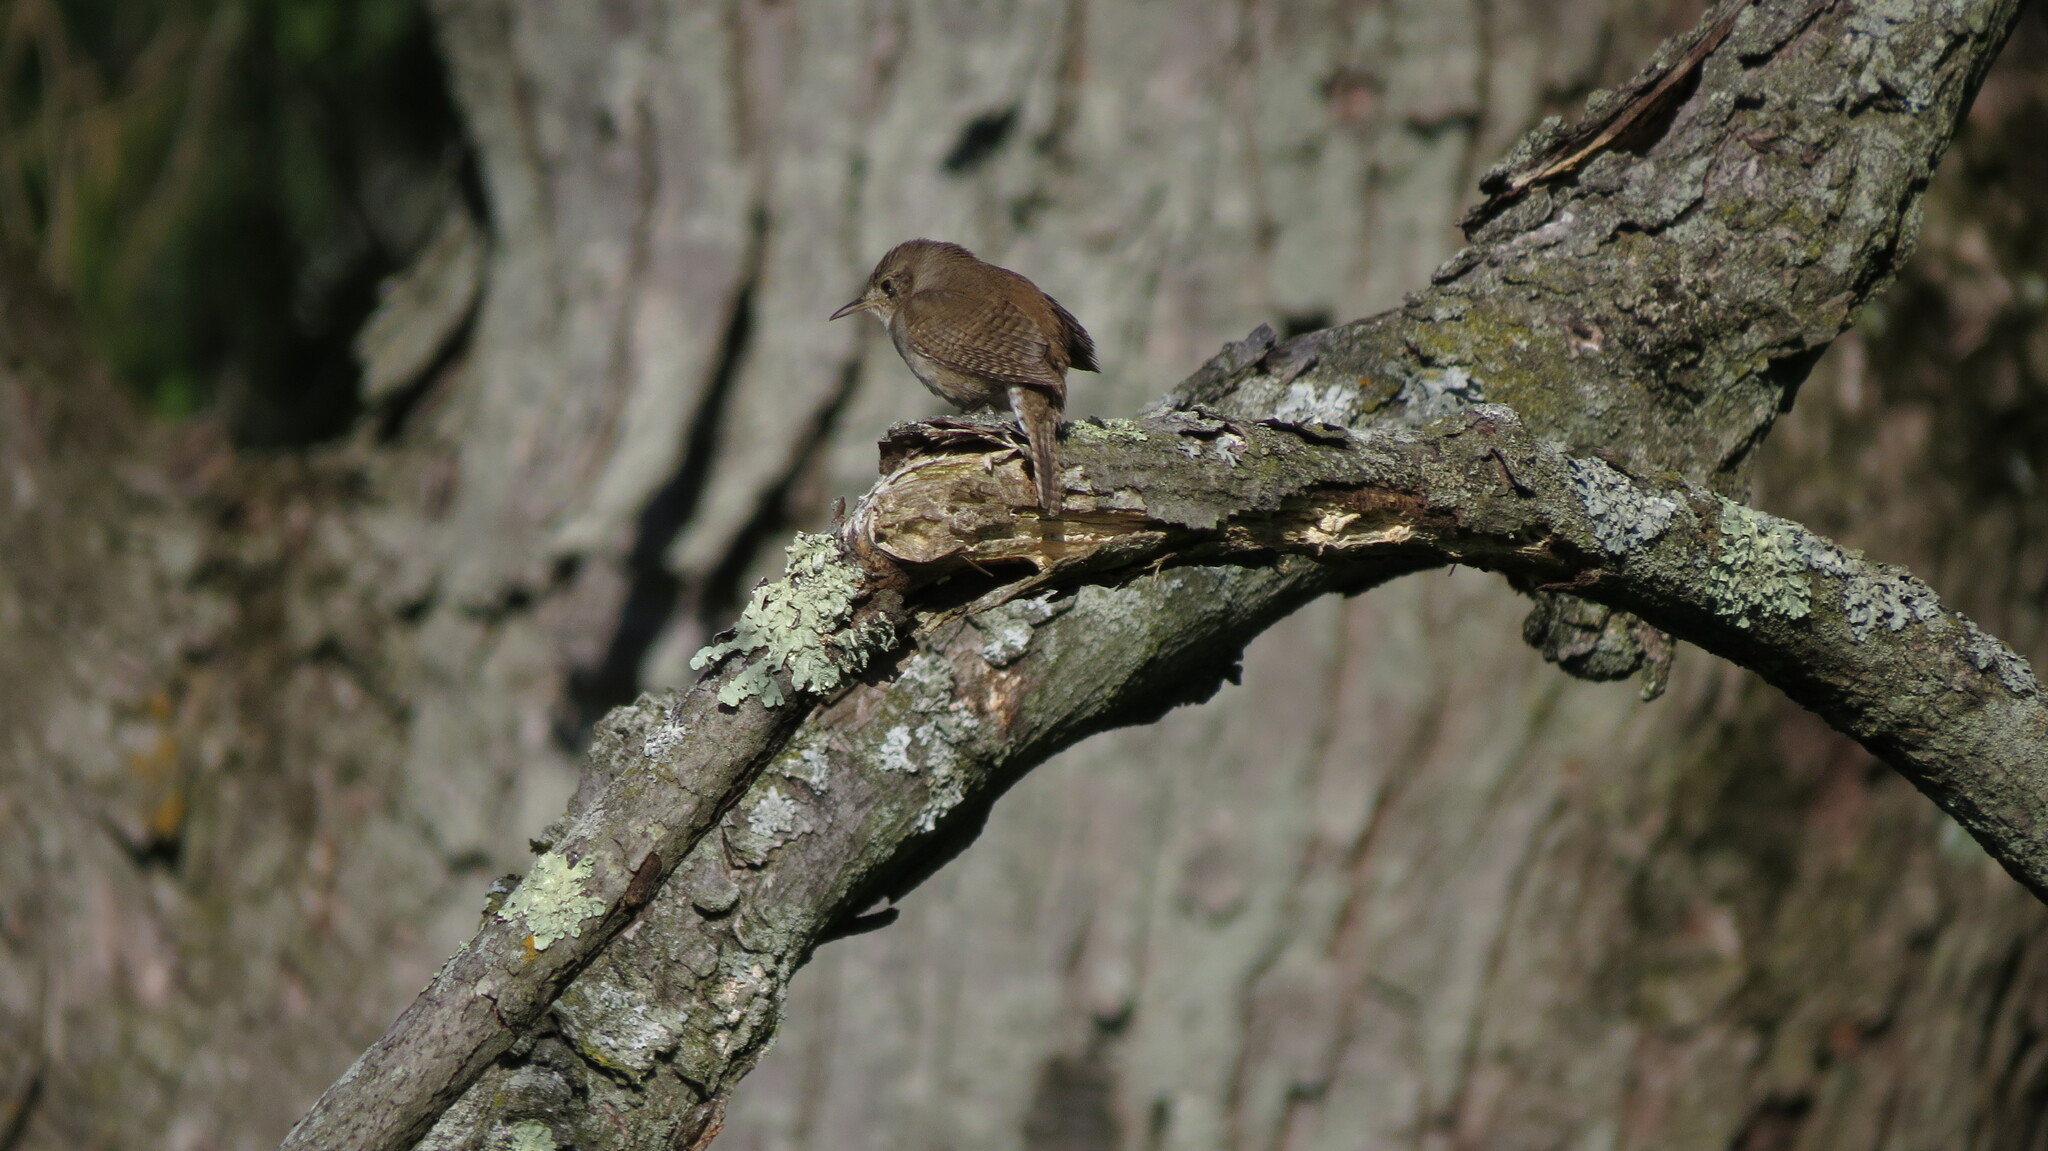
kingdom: Animalia
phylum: Chordata
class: Aves
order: Passeriformes
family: Troglodytidae
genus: Troglodytes
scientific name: Troglodytes aedon
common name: House wren
